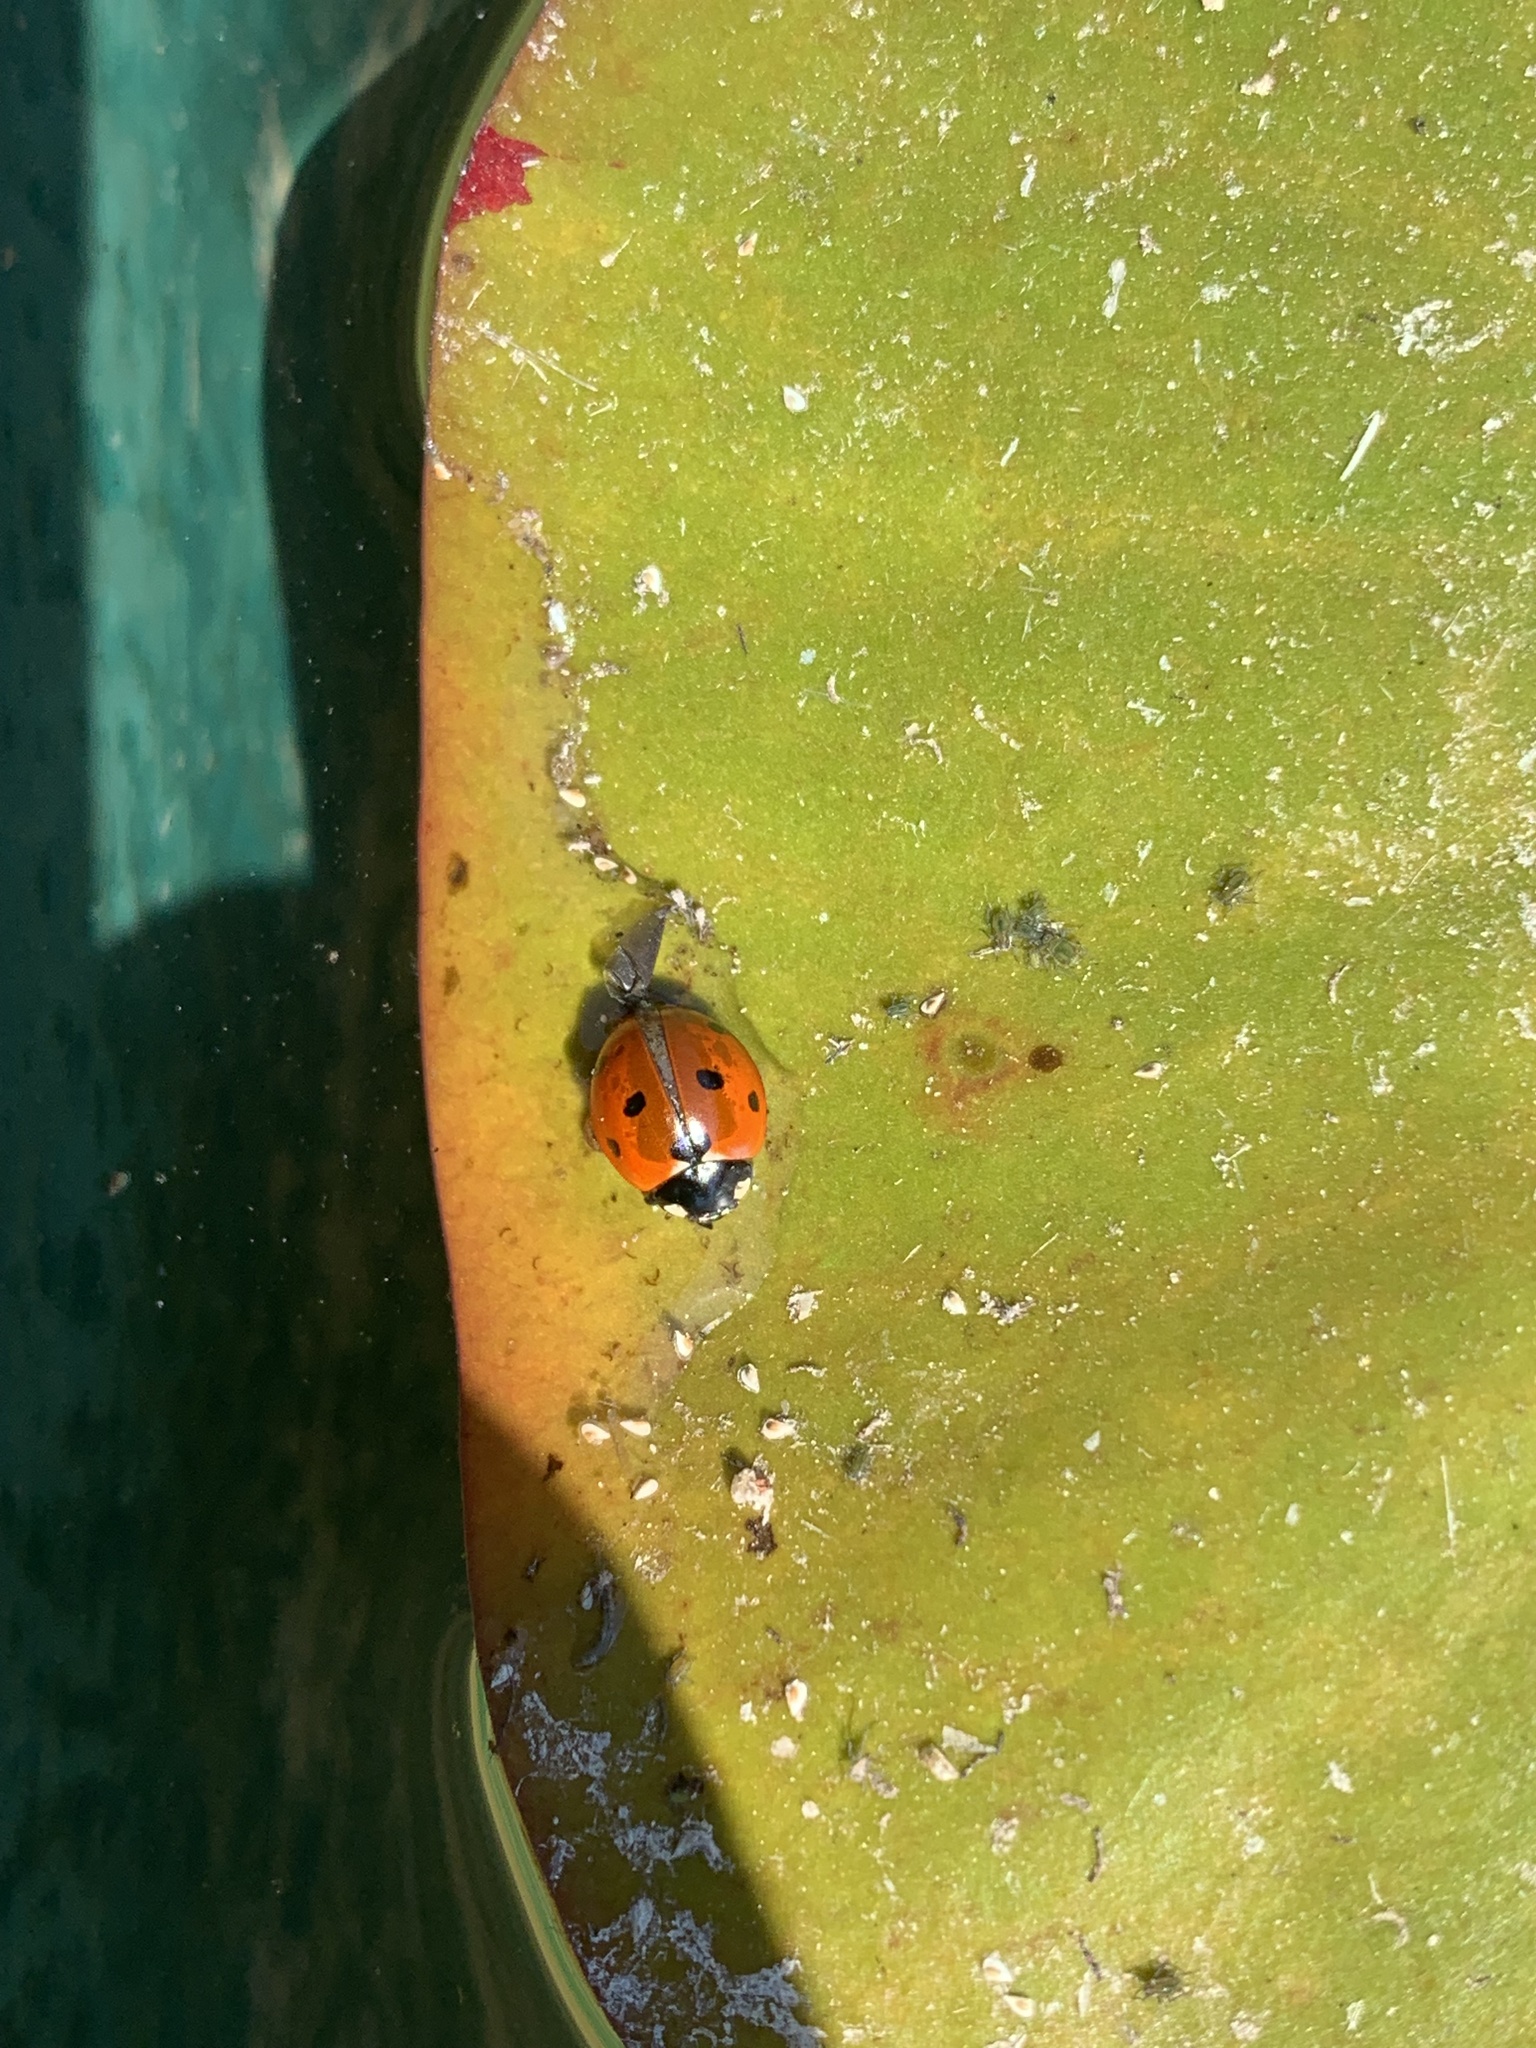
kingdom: Animalia
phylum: Arthropoda
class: Insecta
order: Coleoptera
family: Coccinellidae
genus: Coccinella
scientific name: Coccinella septempunctata
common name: Sevenspotted lady beetle
